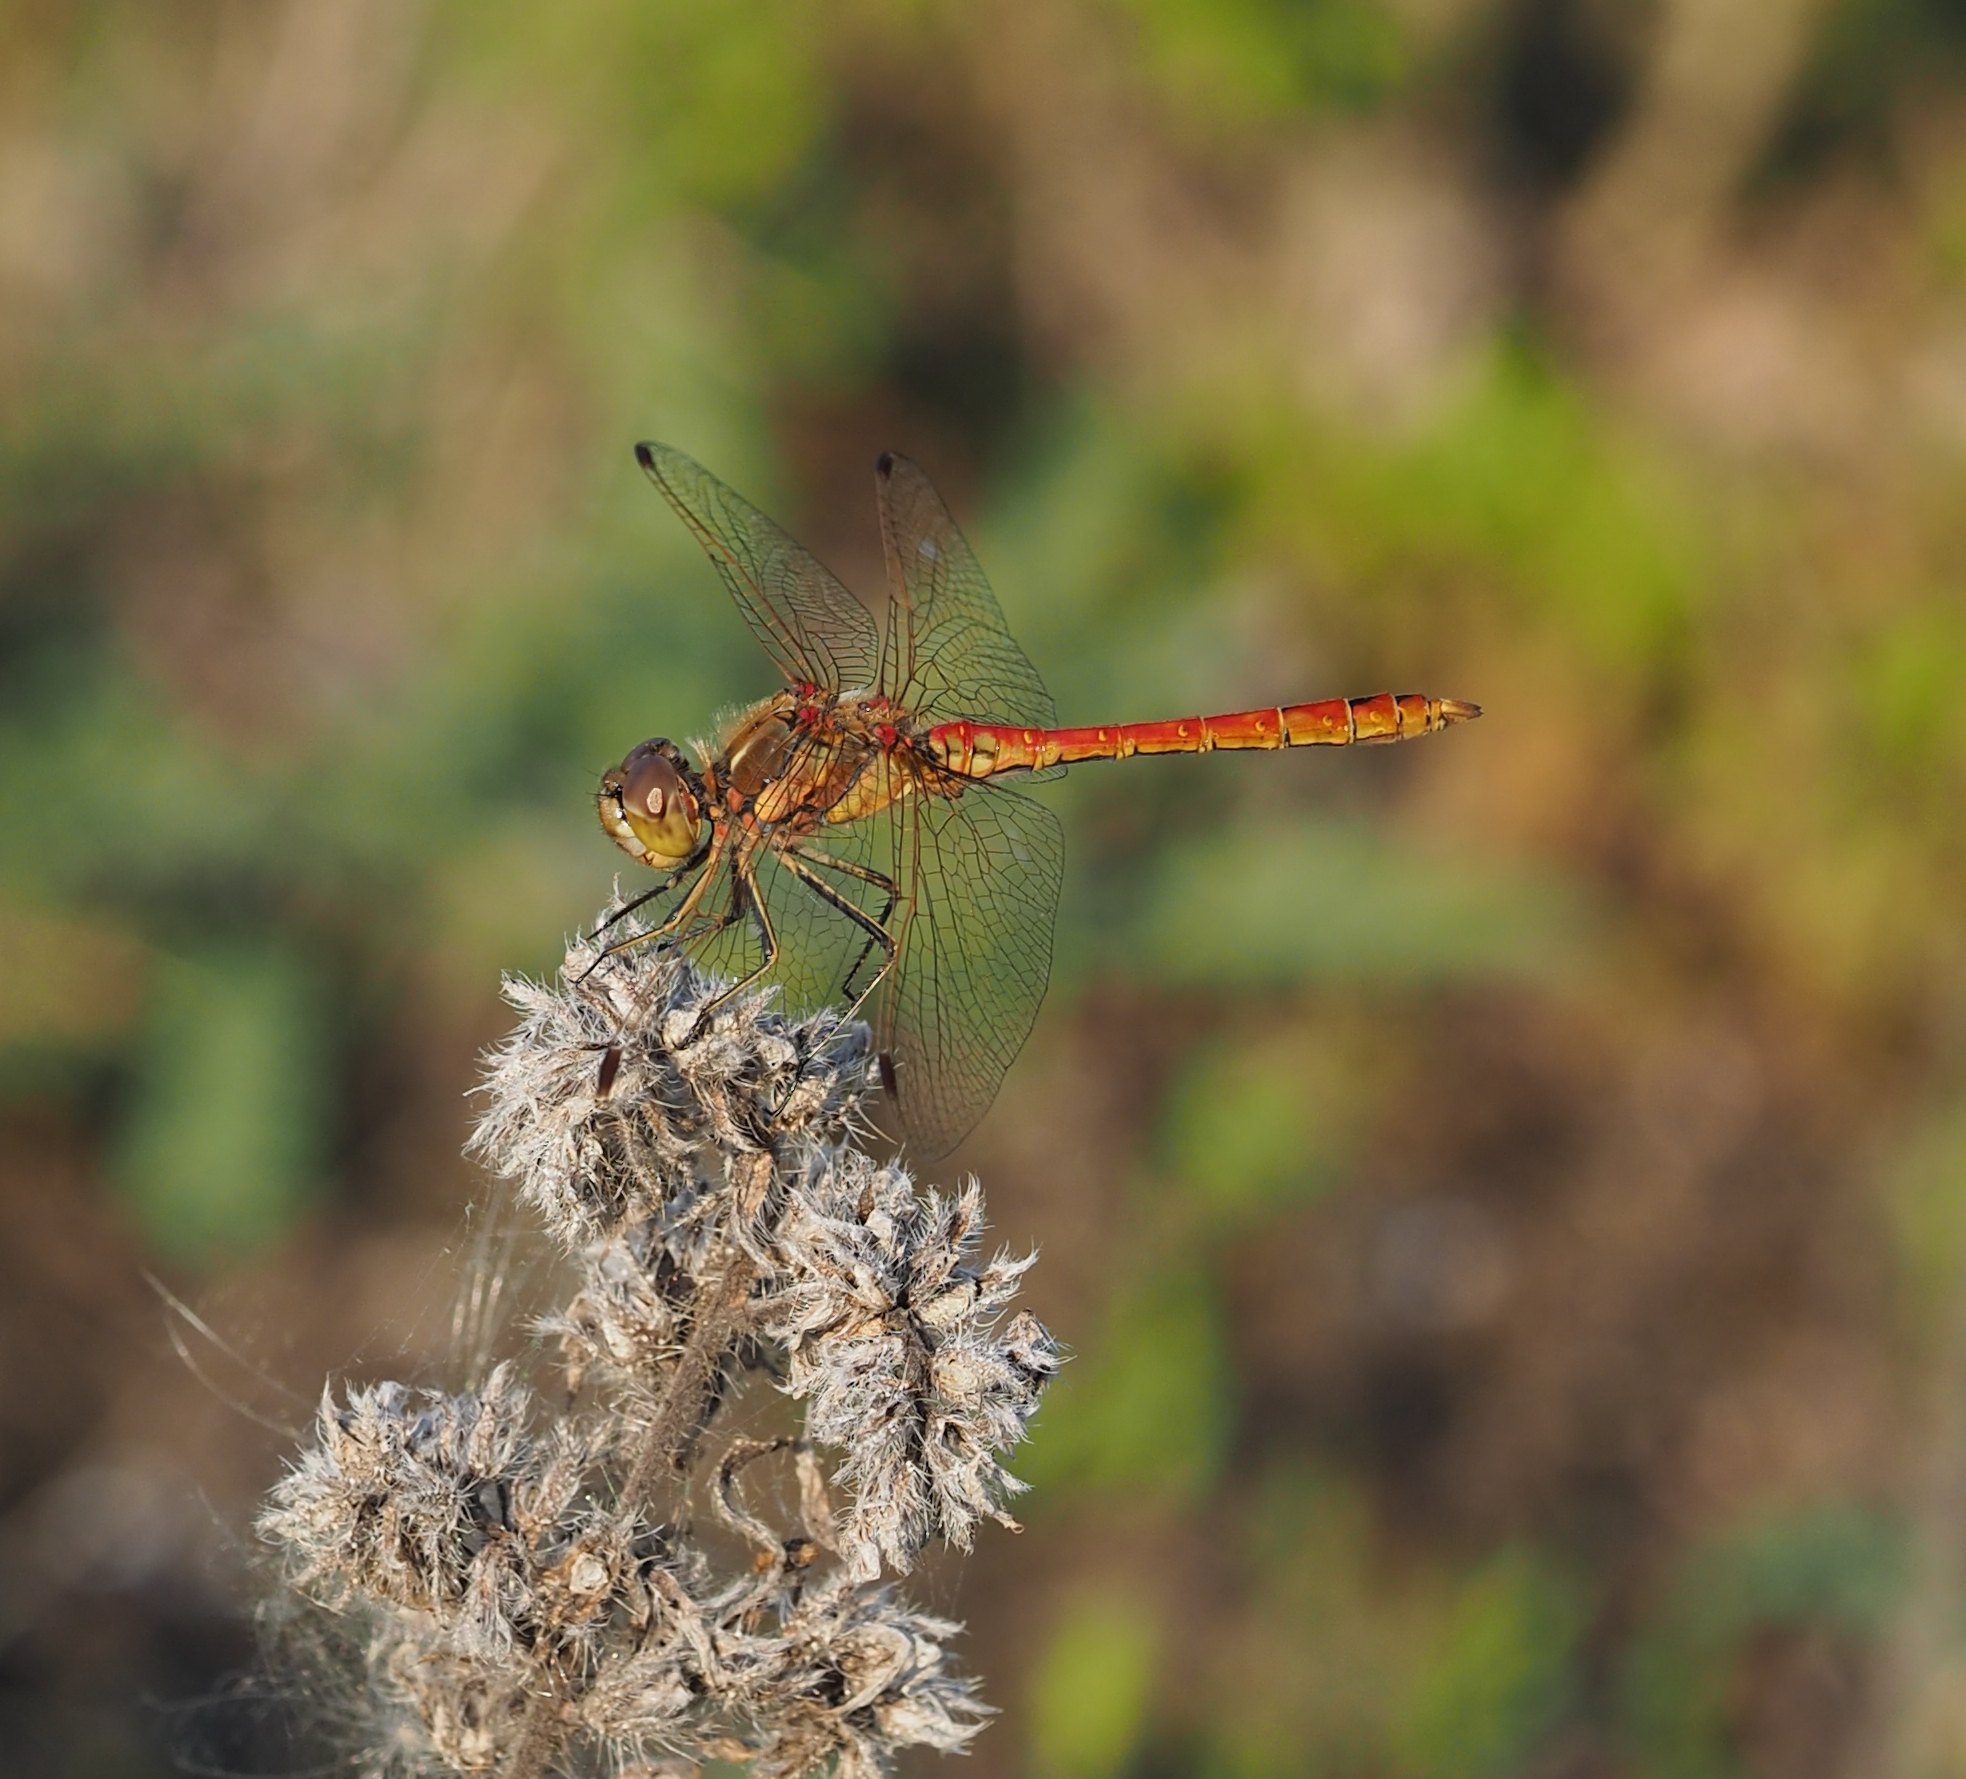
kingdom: Animalia
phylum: Arthropoda
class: Insecta
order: Odonata
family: Libellulidae
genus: Sympetrum
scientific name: Sympetrum vulgatum
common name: Vagrant darter
